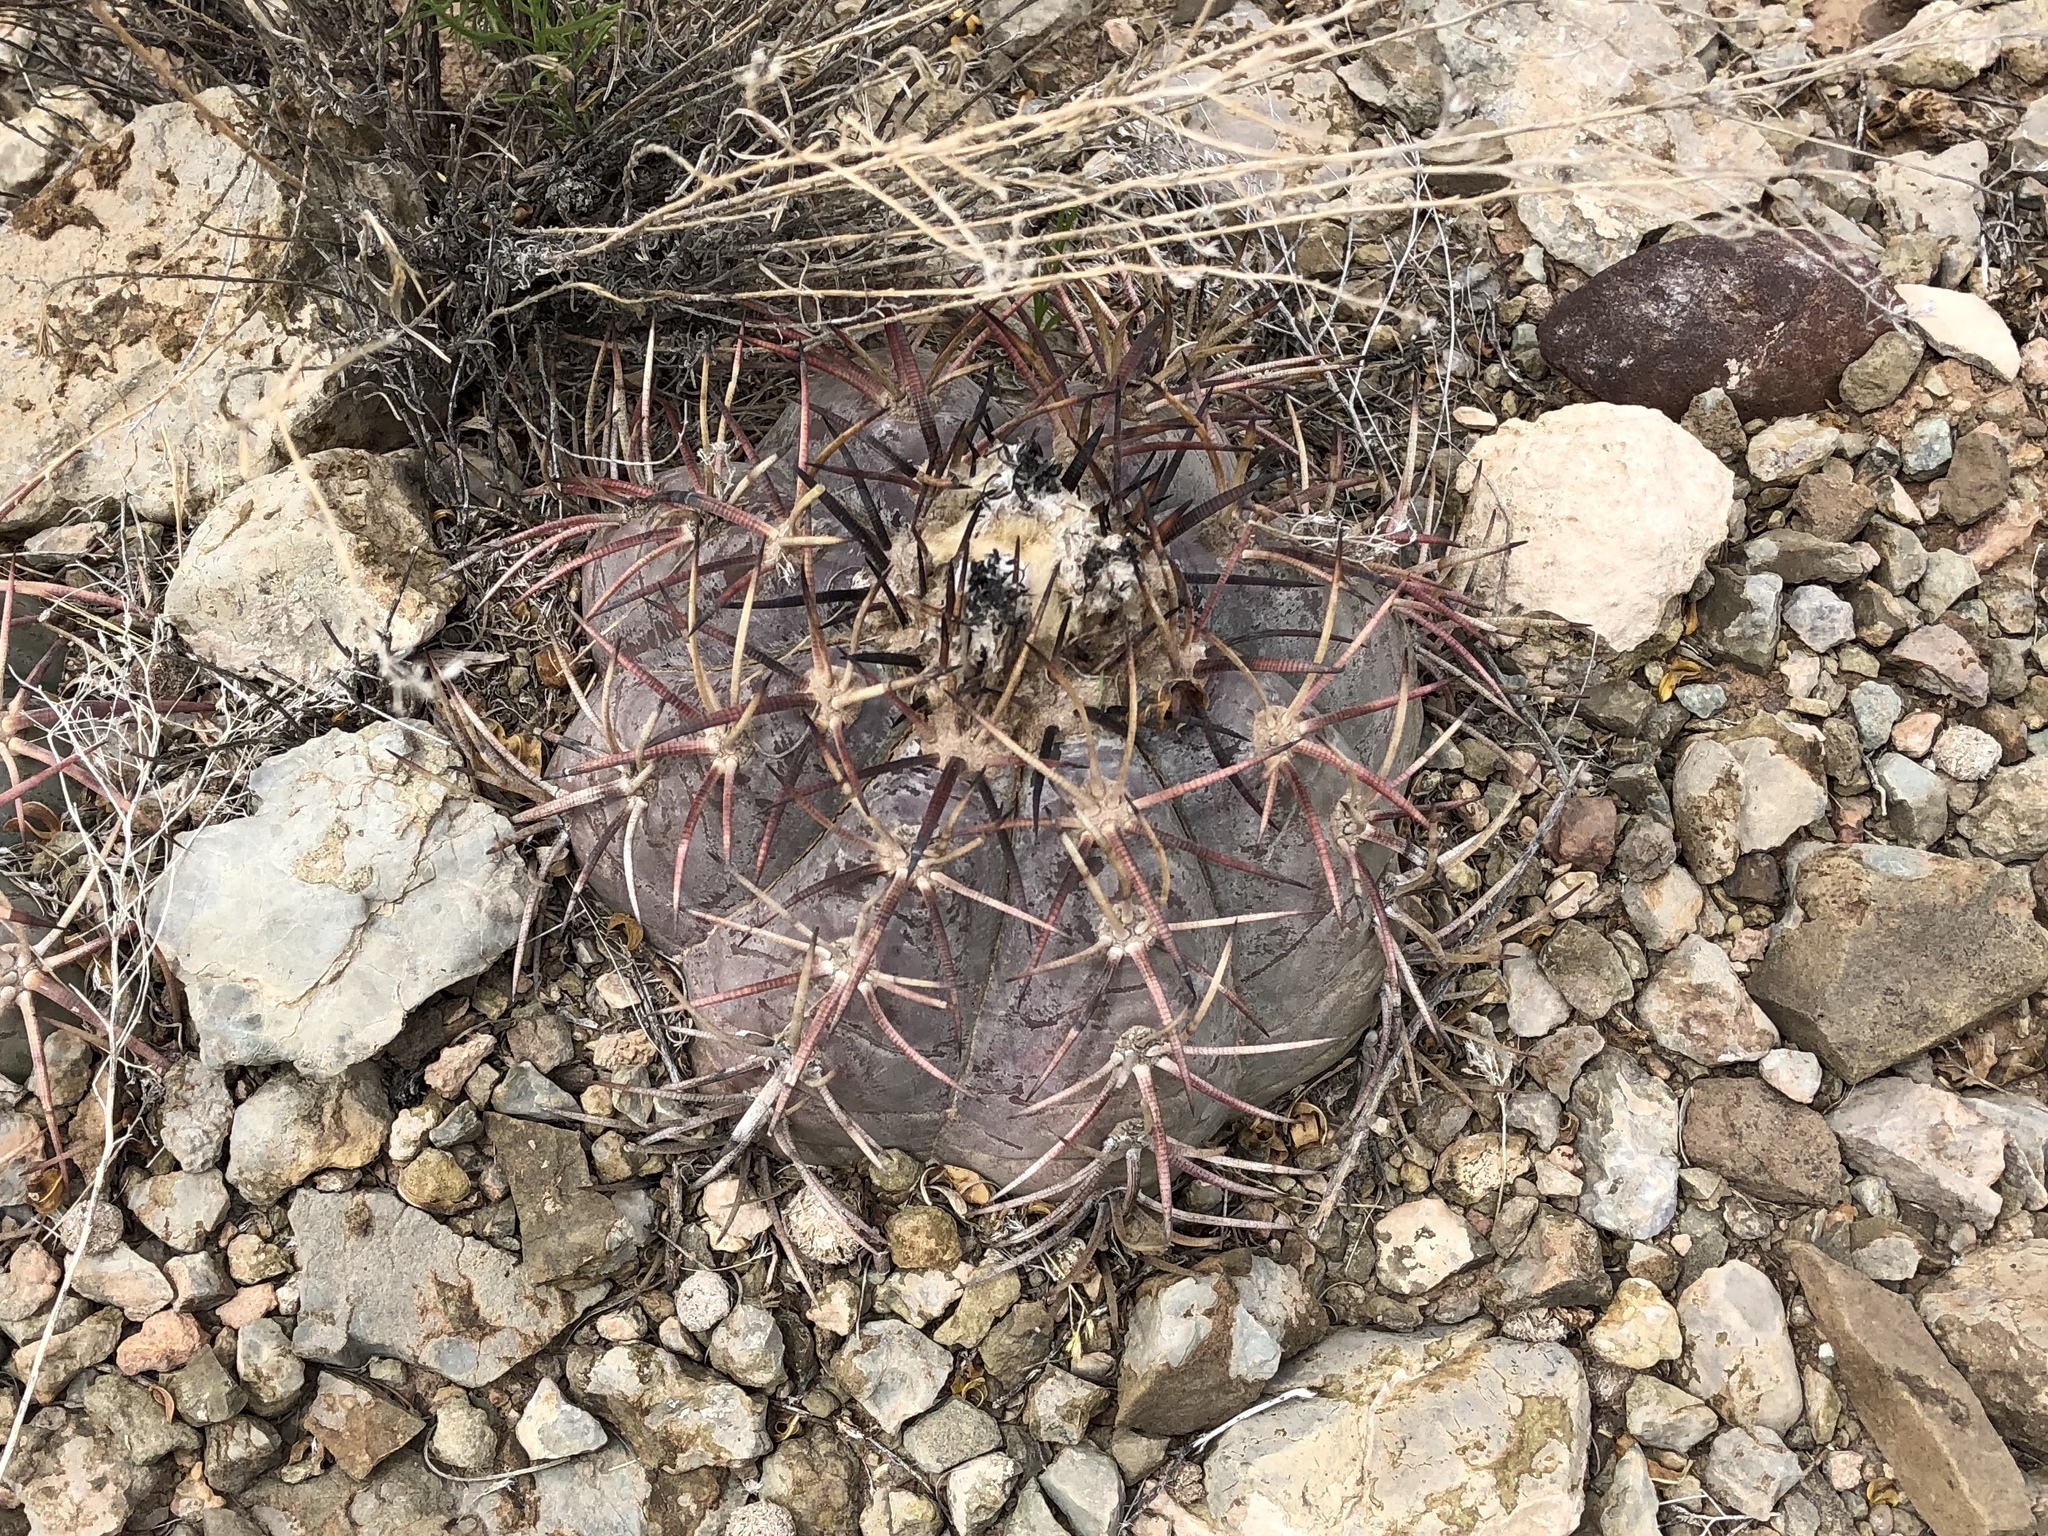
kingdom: Plantae
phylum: Tracheophyta
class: Magnoliopsida
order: Caryophyllales
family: Cactaceae
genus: Echinocactus
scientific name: Echinocactus horizonthalonius
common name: Devilshead
